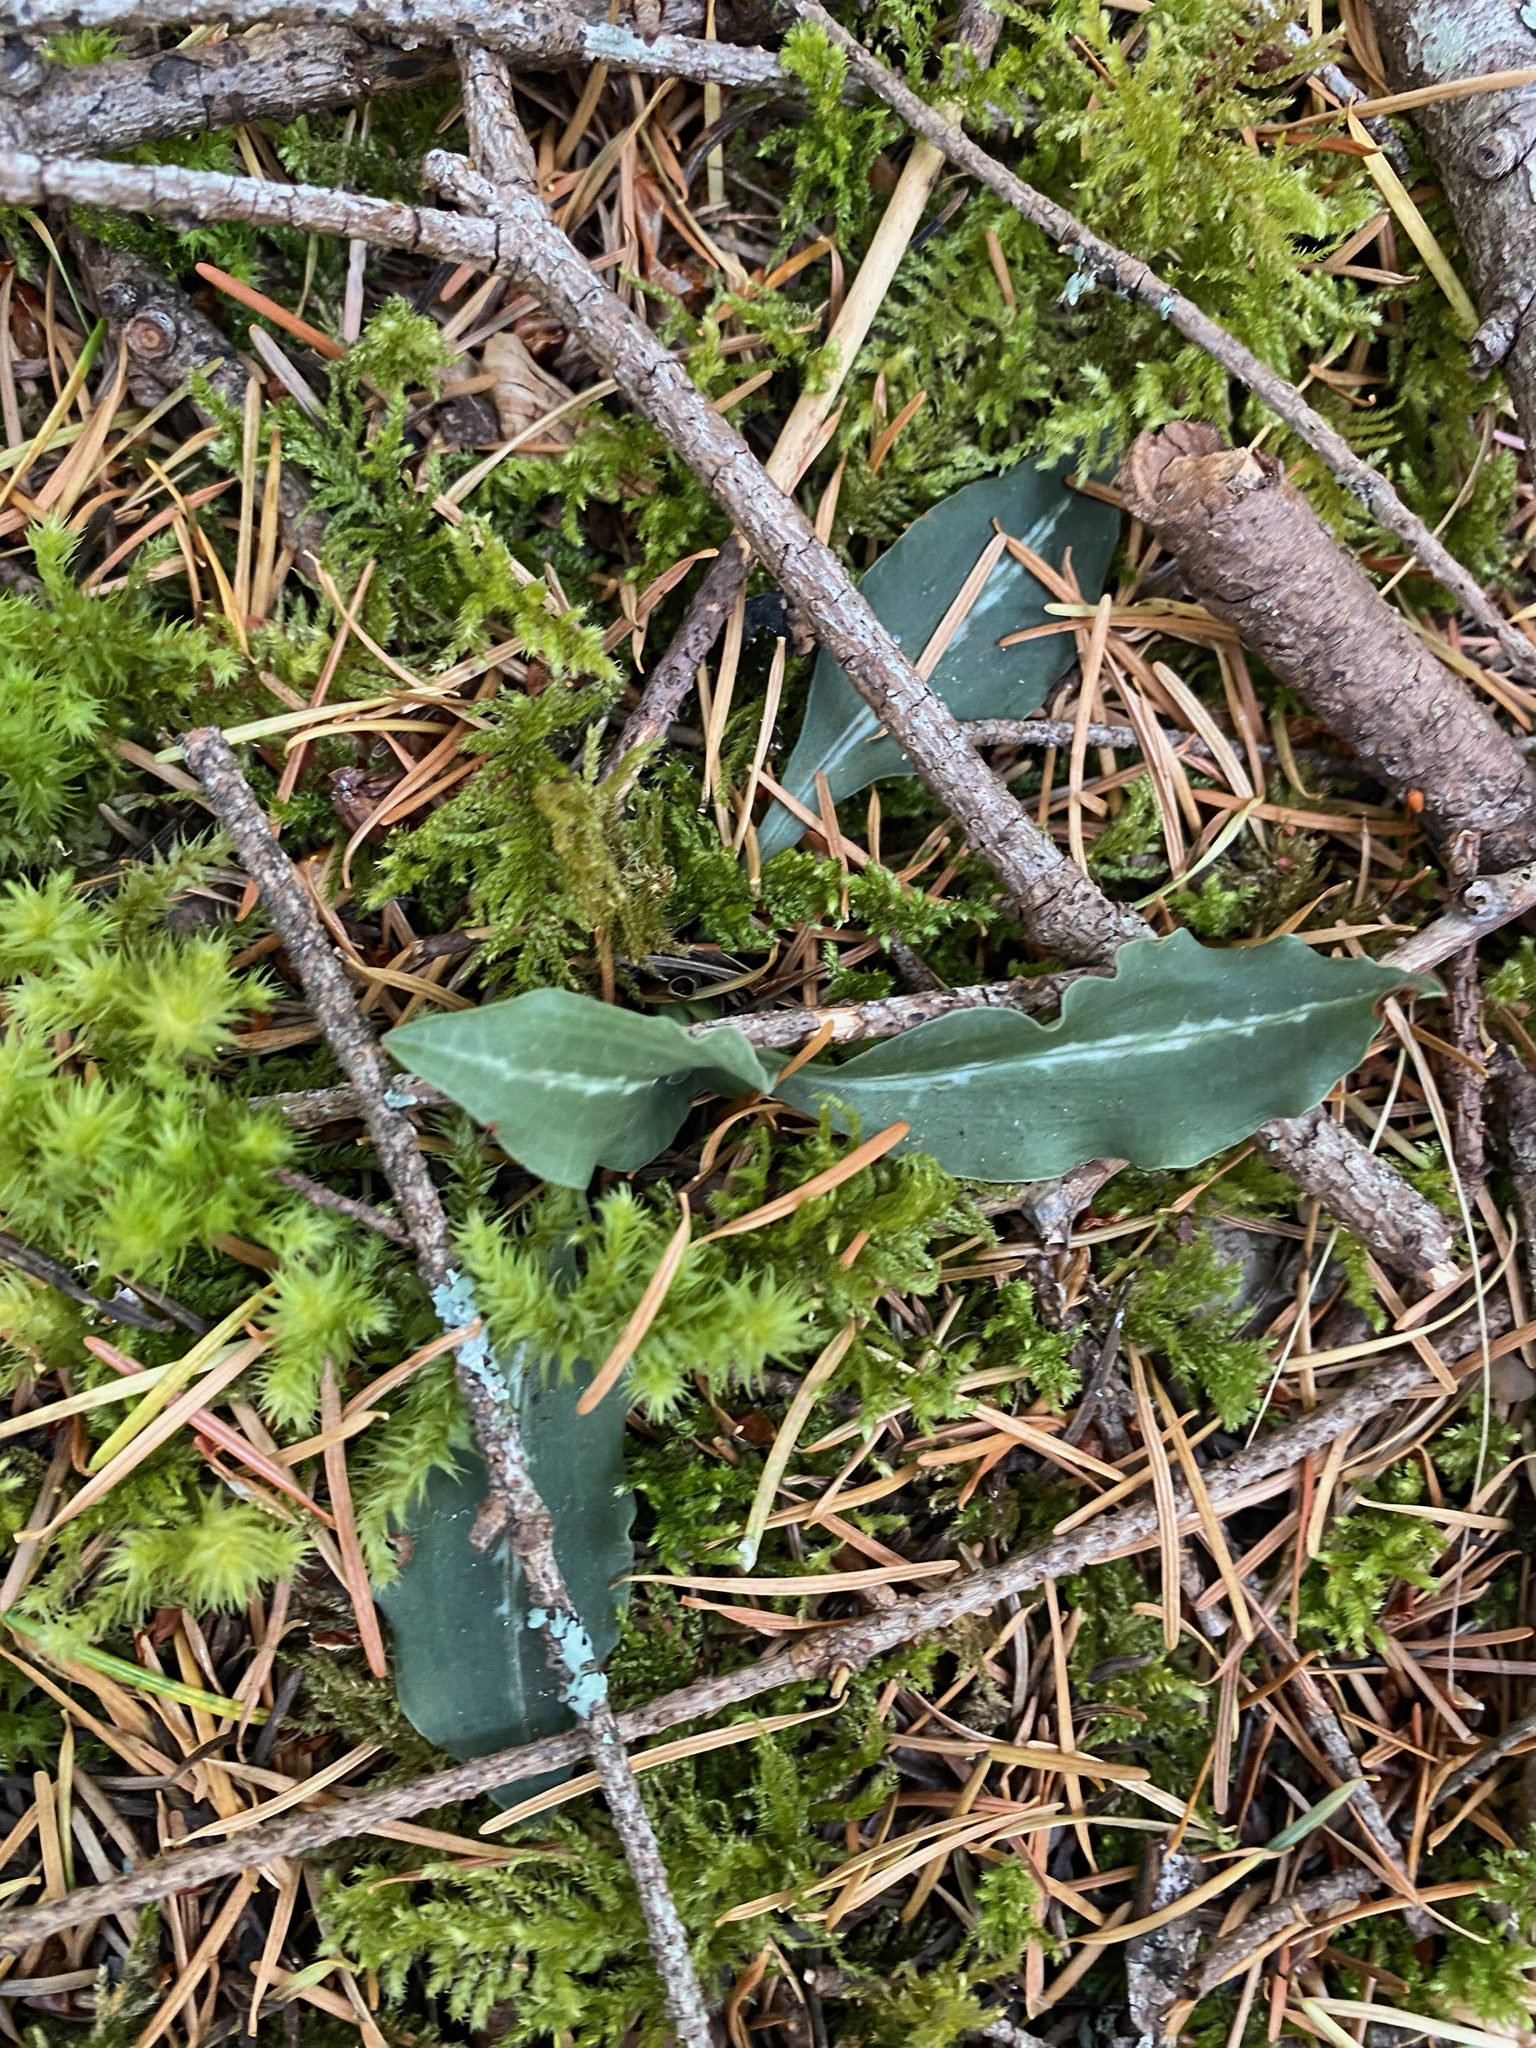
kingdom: Plantae
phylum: Tracheophyta
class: Liliopsida
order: Asparagales
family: Orchidaceae
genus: Goodyera
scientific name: Goodyera oblongifolia
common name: Giant rattlesnake-plantain
